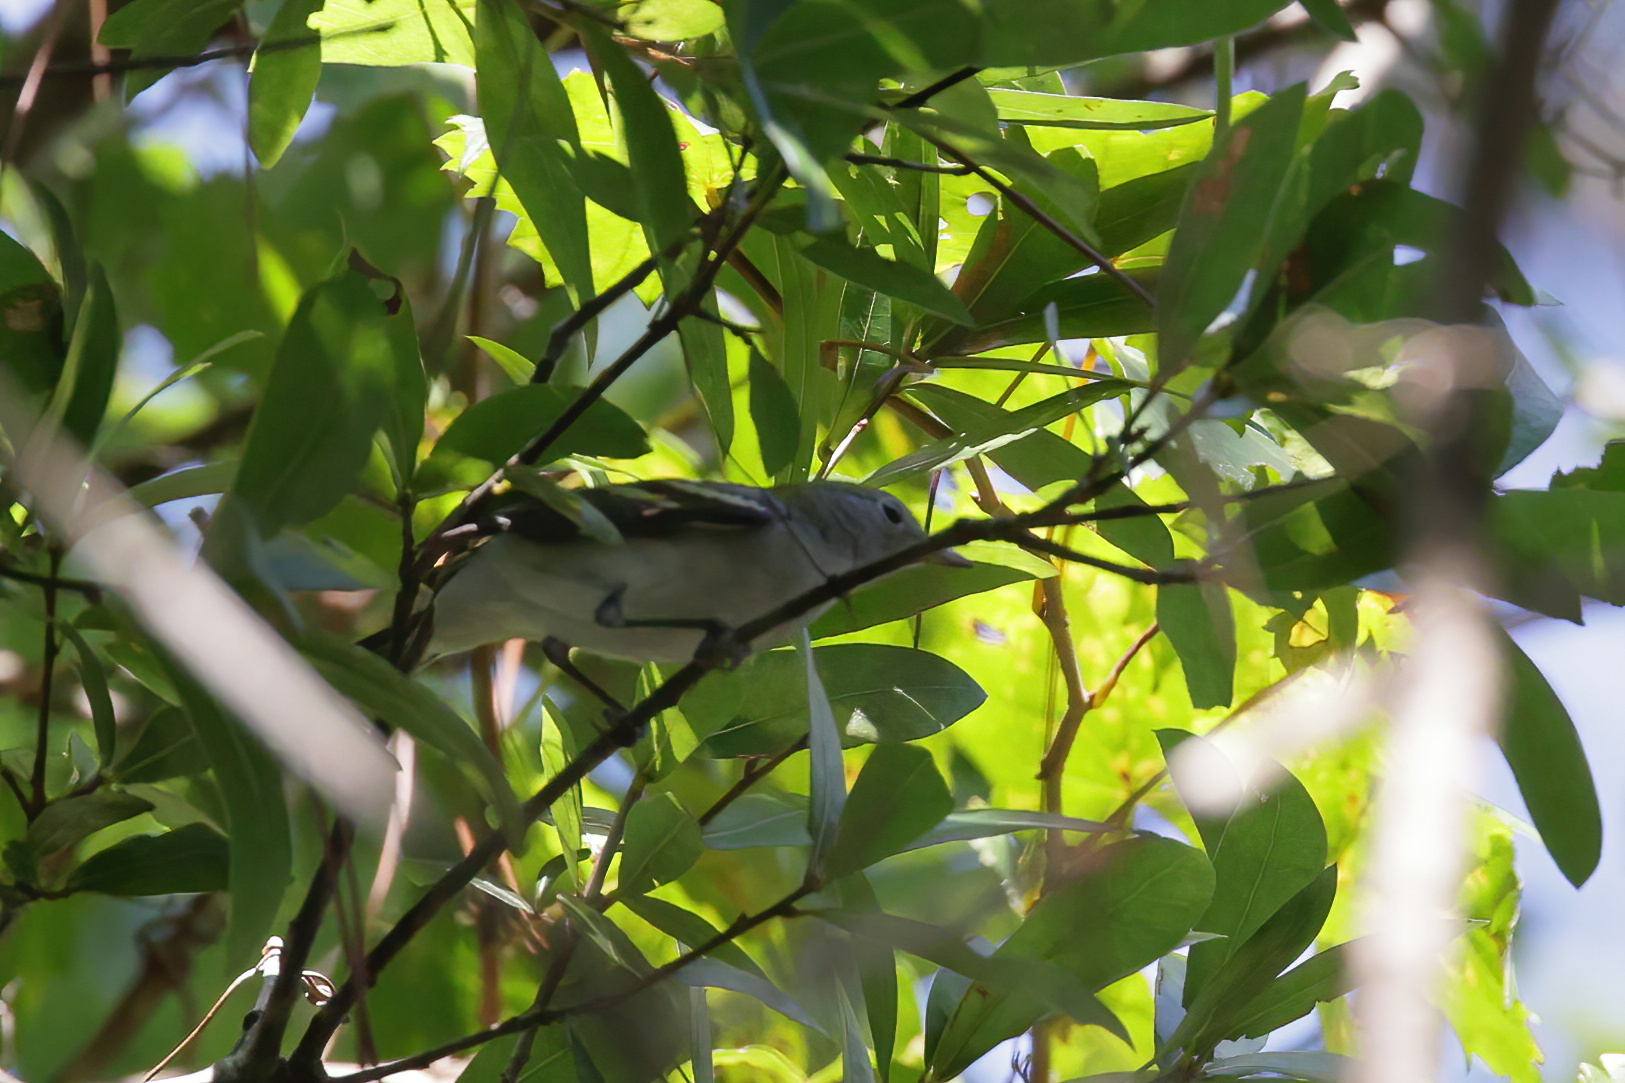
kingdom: Animalia
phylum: Chordata
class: Aves
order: Passeriformes
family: Parulidae
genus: Setophaga
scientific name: Setophaga pensylvanica
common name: Chestnut-sided warbler
